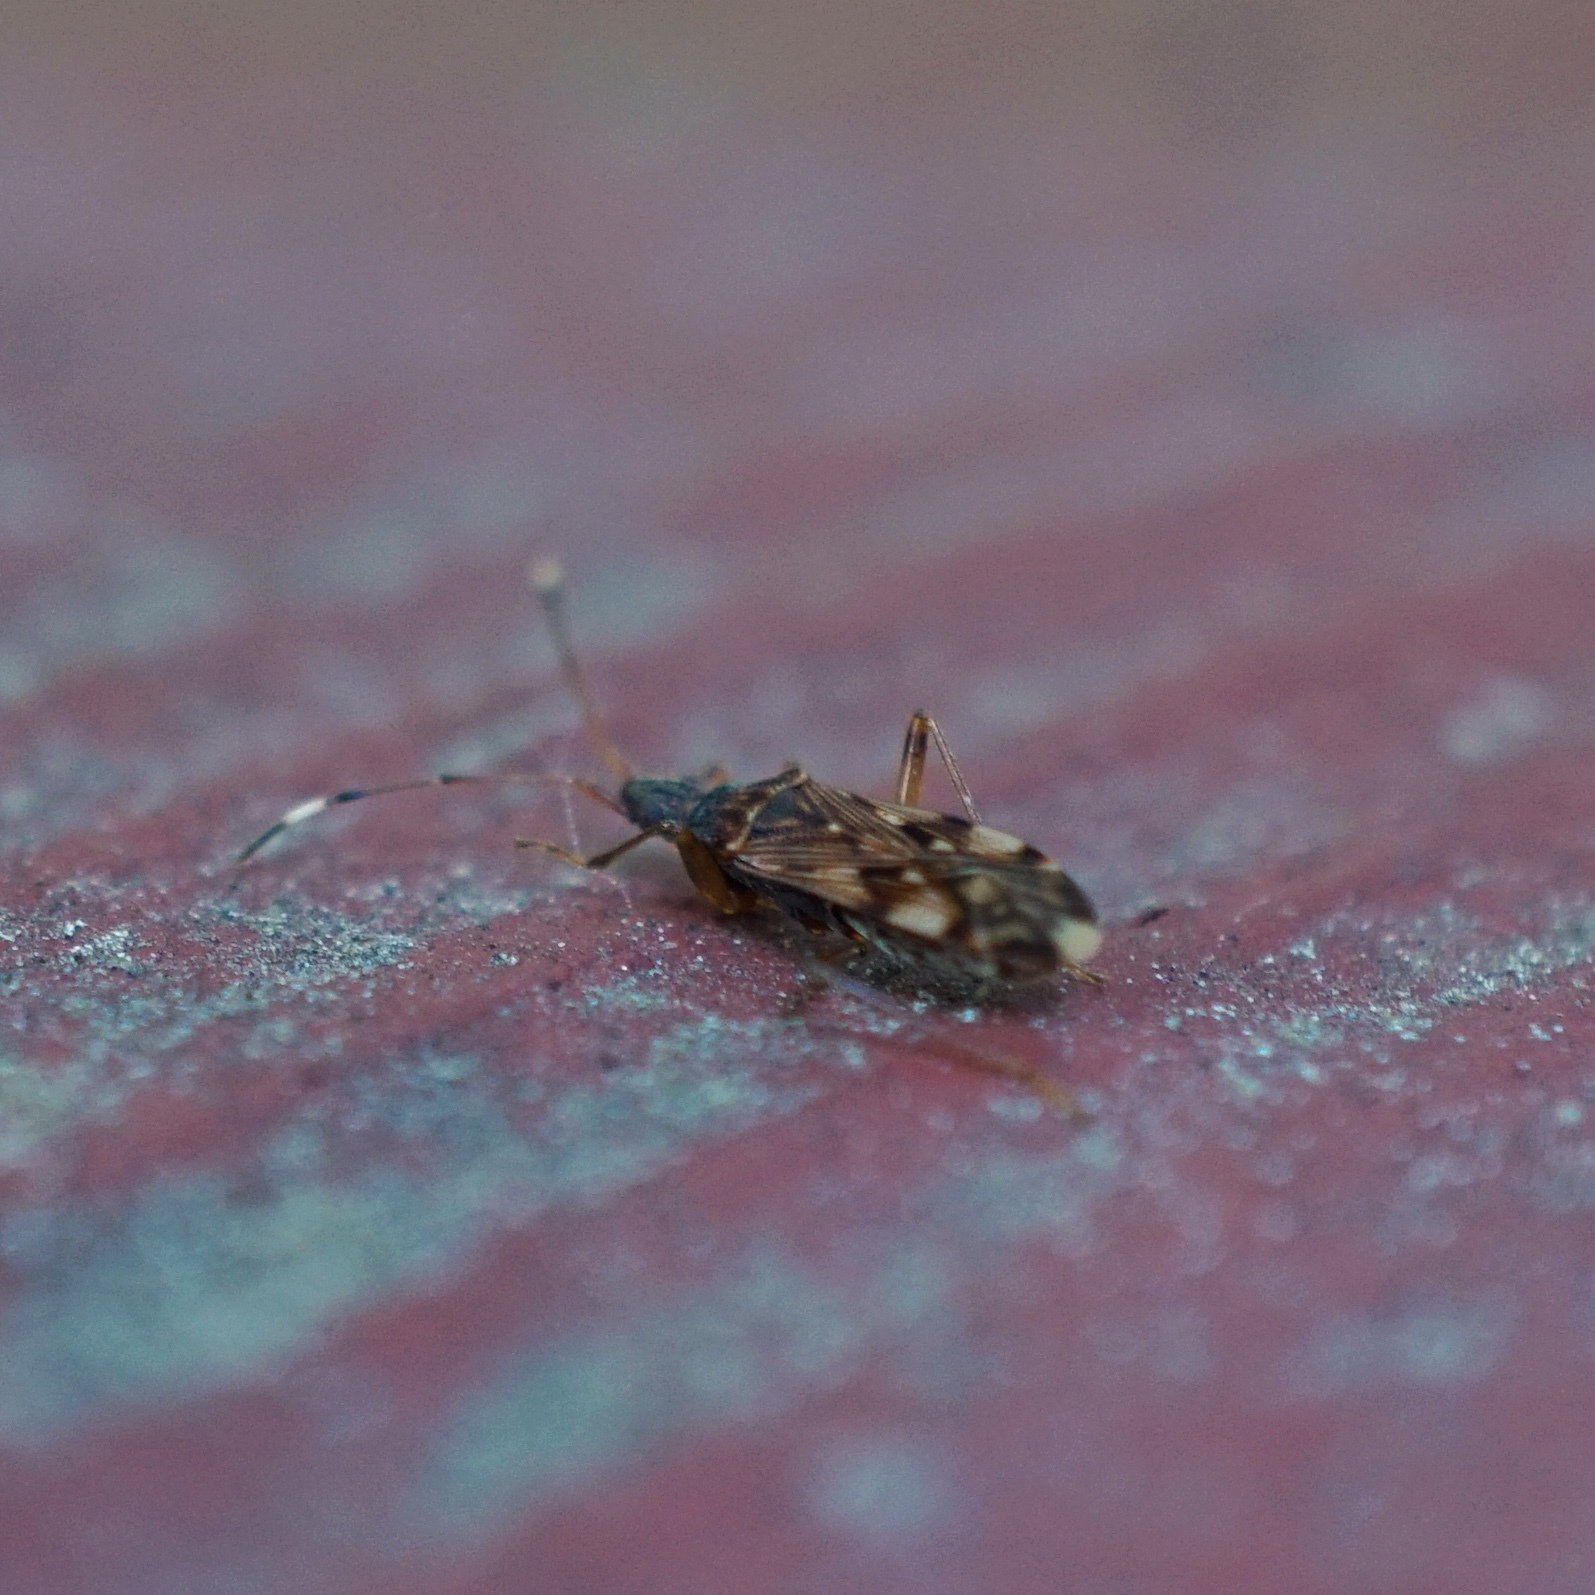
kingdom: Animalia
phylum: Arthropoda
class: Insecta
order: Hemiptera
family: Rhyparochromidae
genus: Ozophora
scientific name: Ozophora picturata
